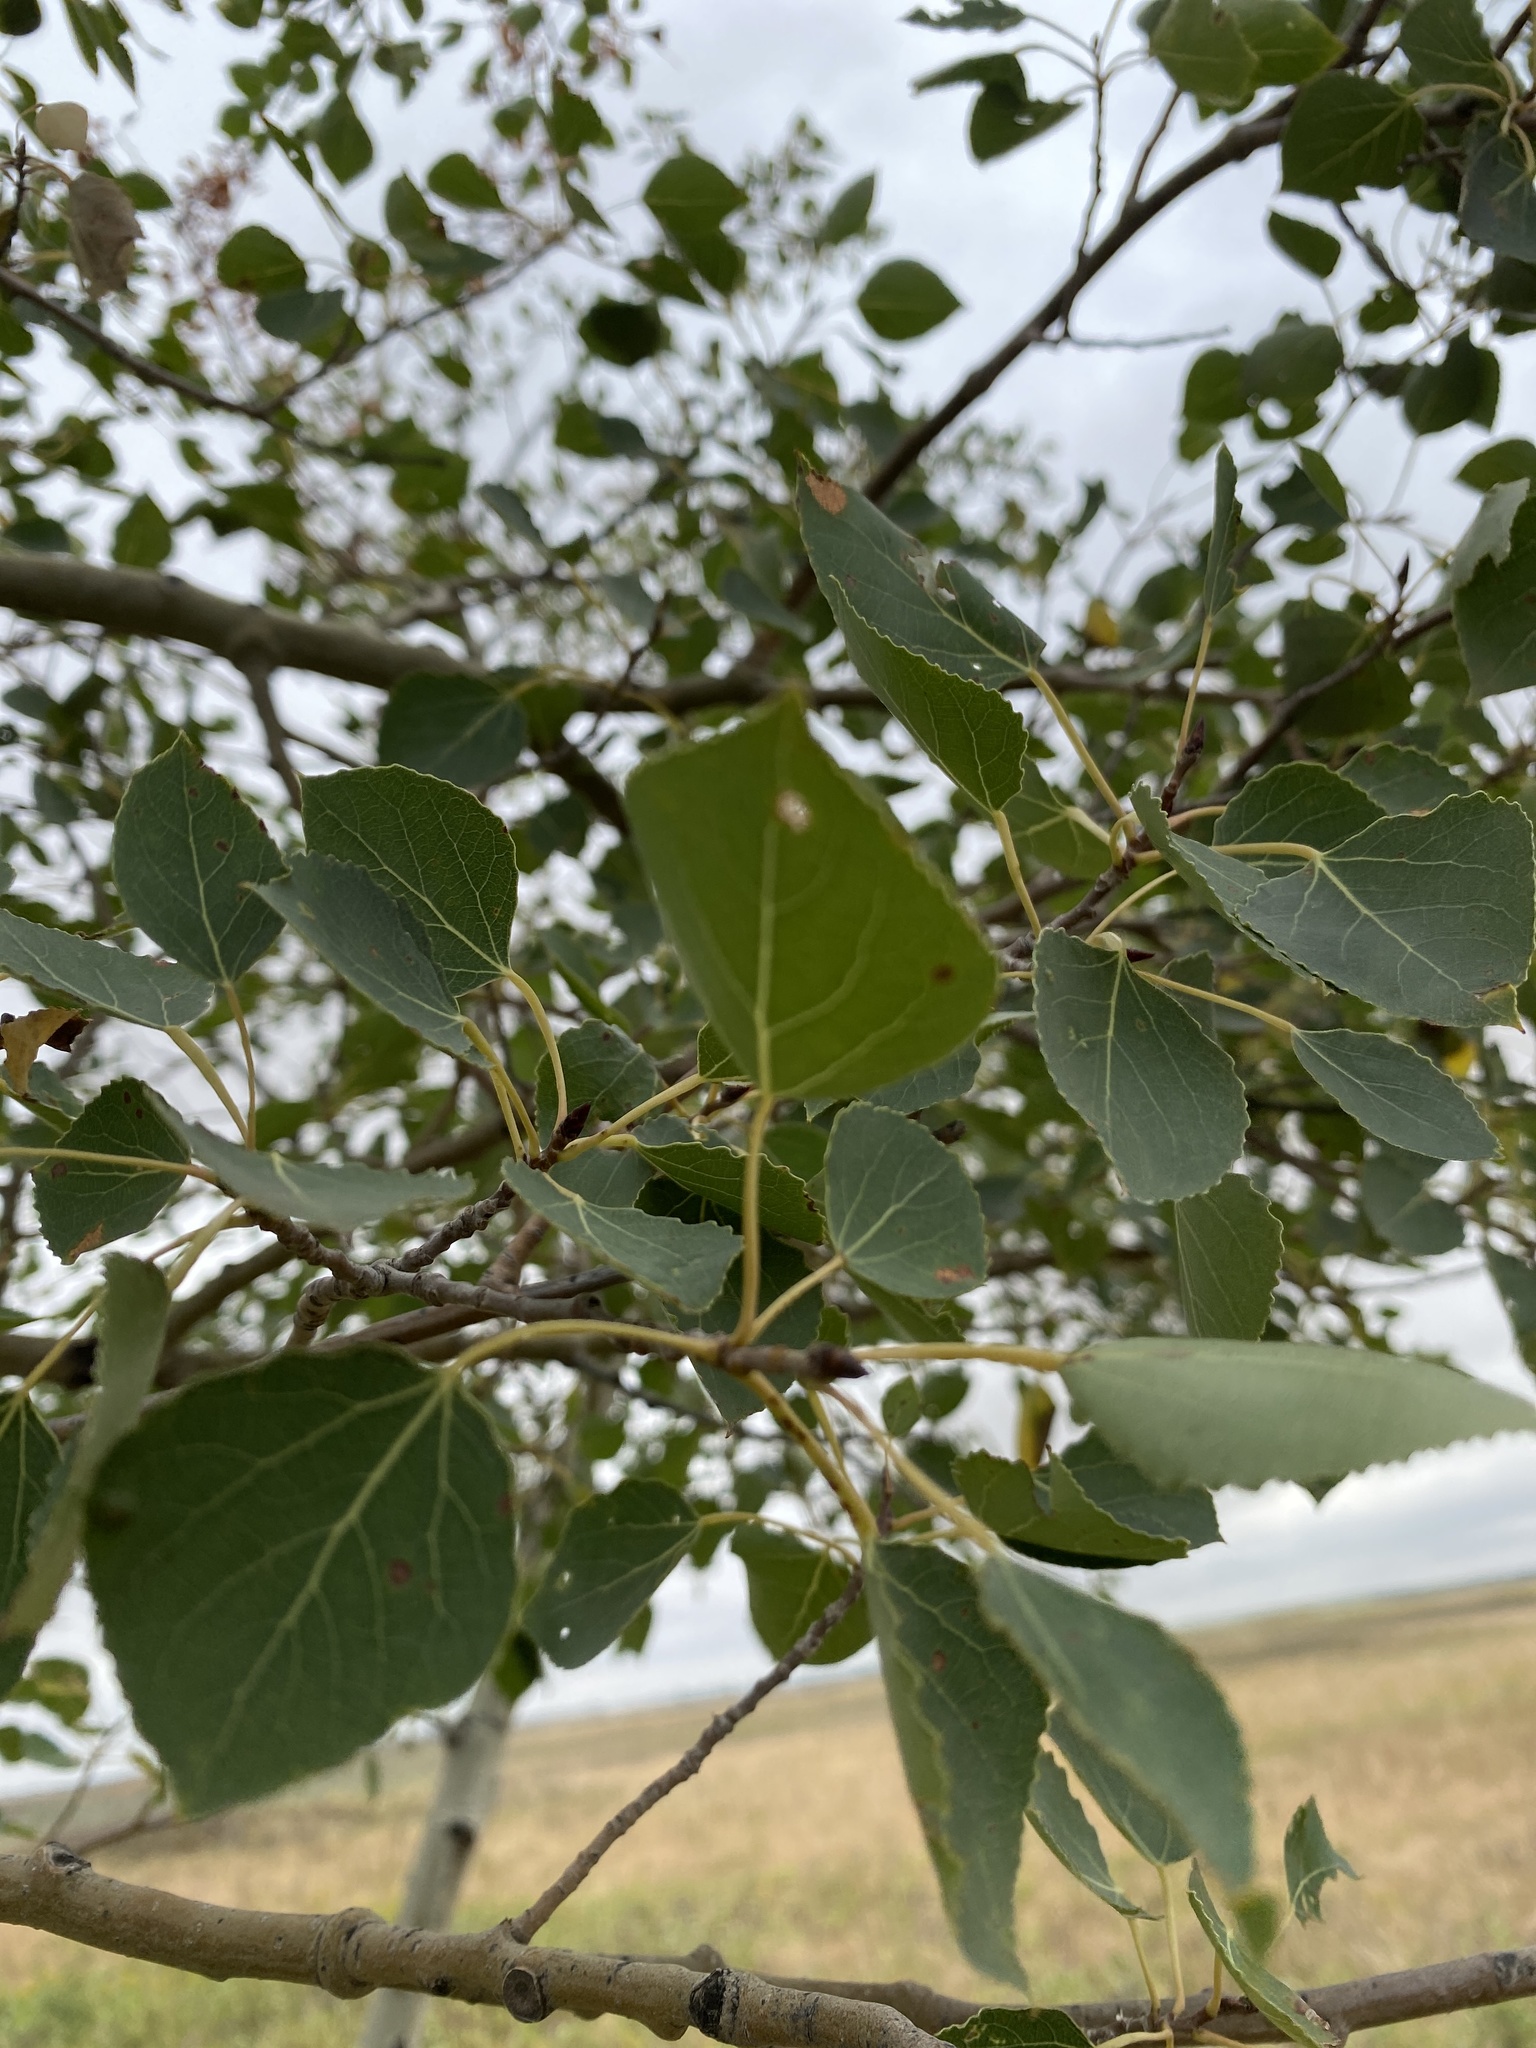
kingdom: Plantae
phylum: Tracheophyta
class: Magnoliopsida
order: Malpighiales
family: Salicaceae
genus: Populus
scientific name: Populus tremuloides
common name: Quaking aspen
